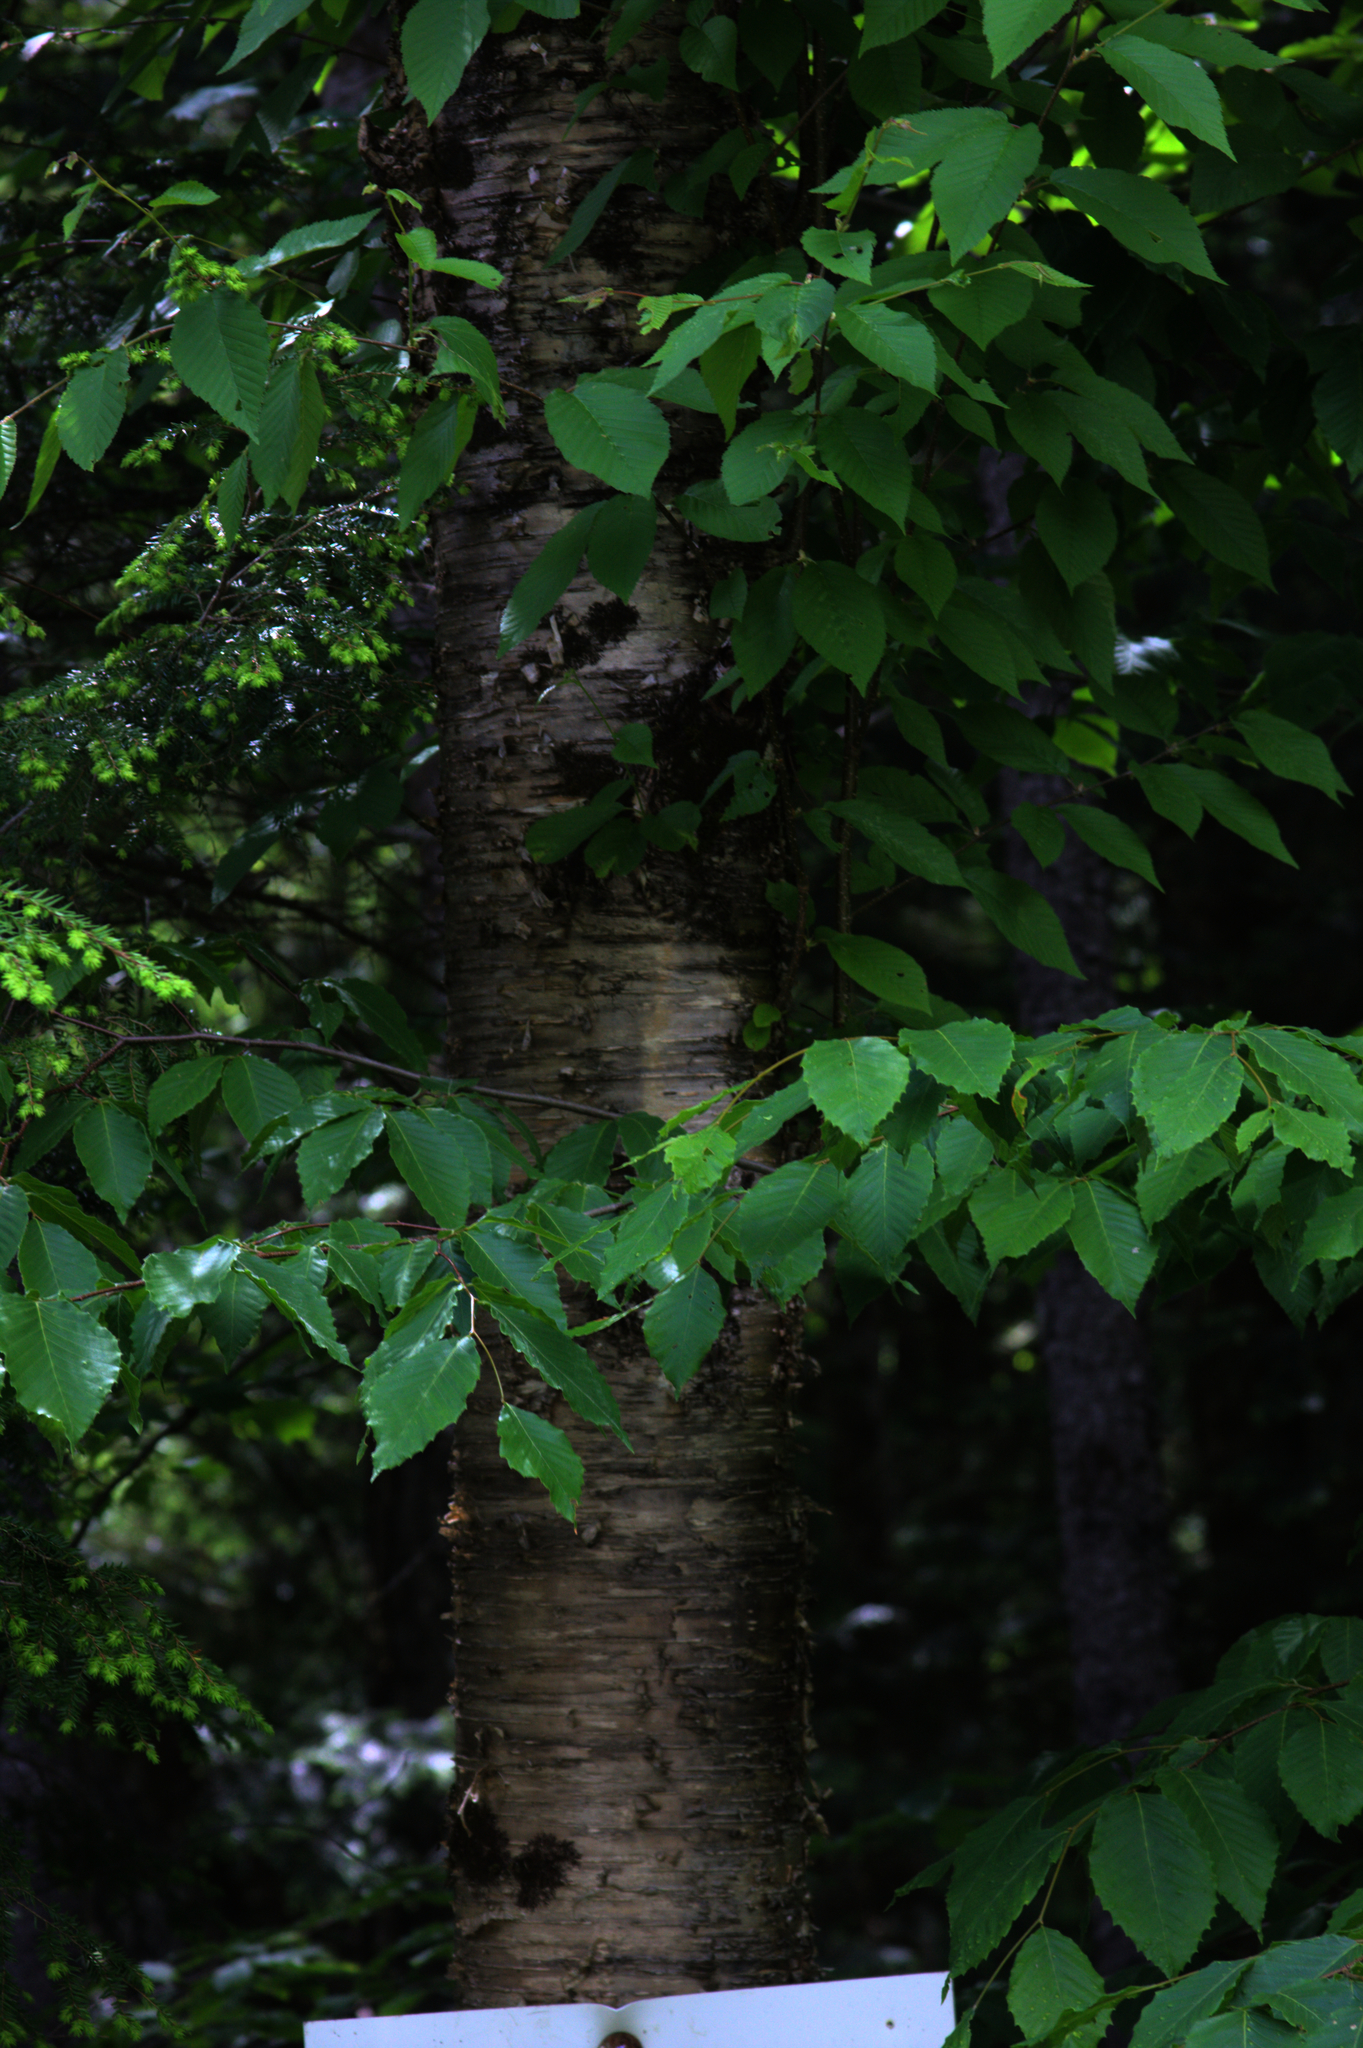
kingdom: Plantae
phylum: Tracheophyta
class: Magnoliopsida
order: Fagales
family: Betulaceae
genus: Betula
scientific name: Betula alleghaniensis
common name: Yellow birch
